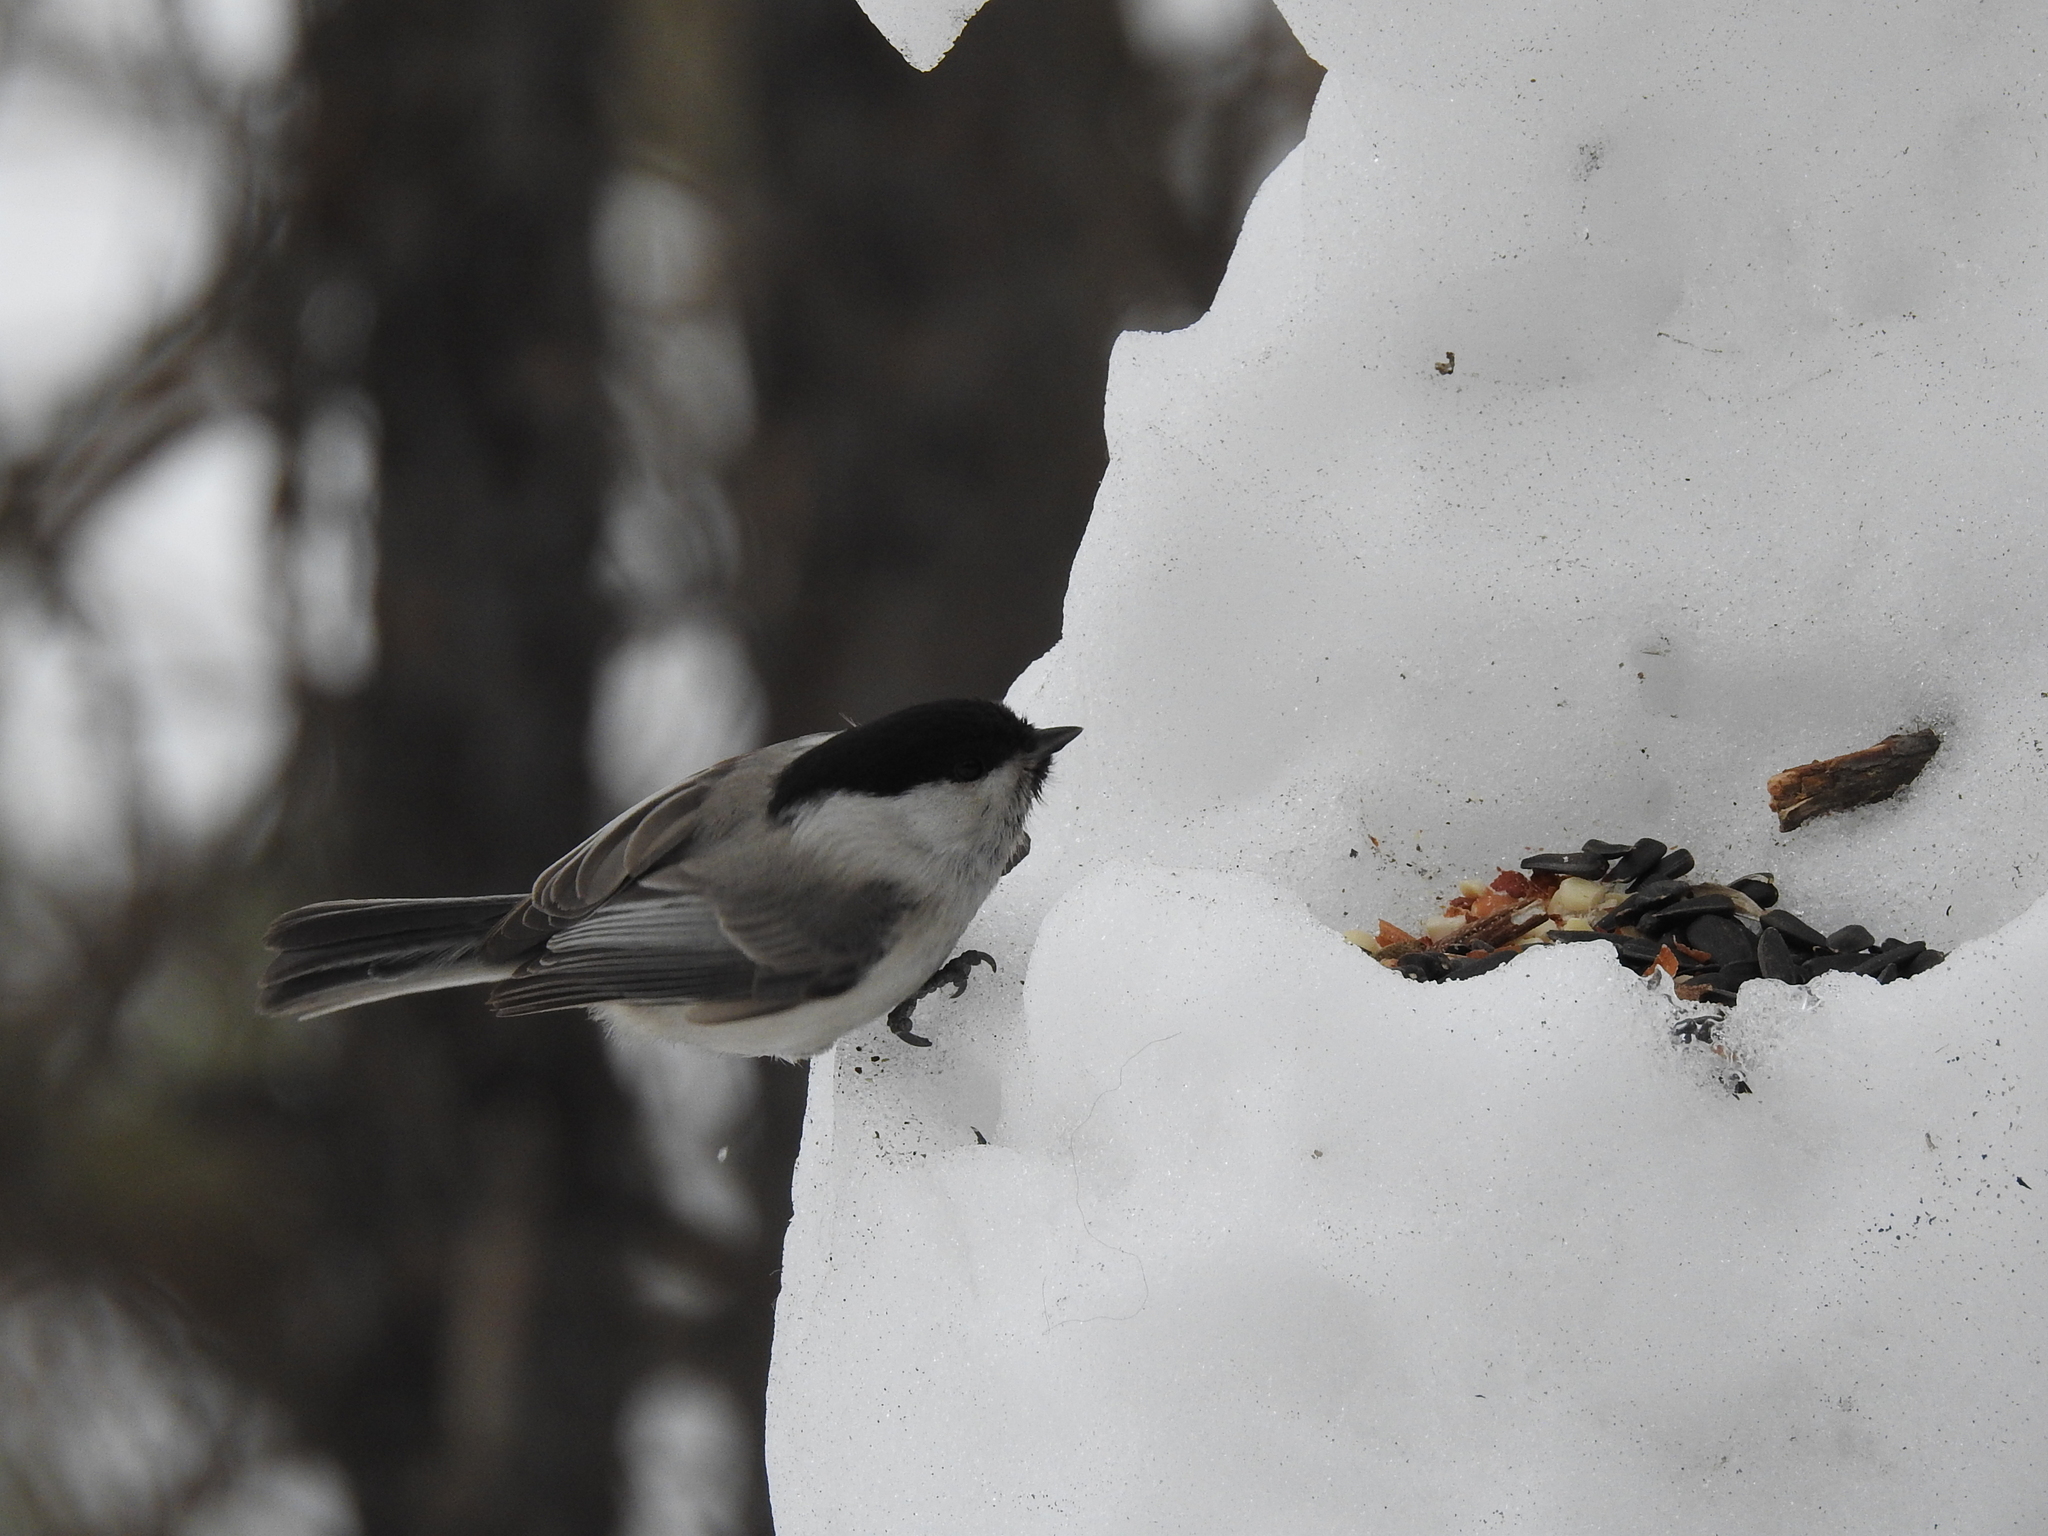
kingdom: Animalia
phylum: Chordata
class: Aves
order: Passeriformes
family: Paridae
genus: Poecile
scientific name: Poecile montanus
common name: Willow tit
